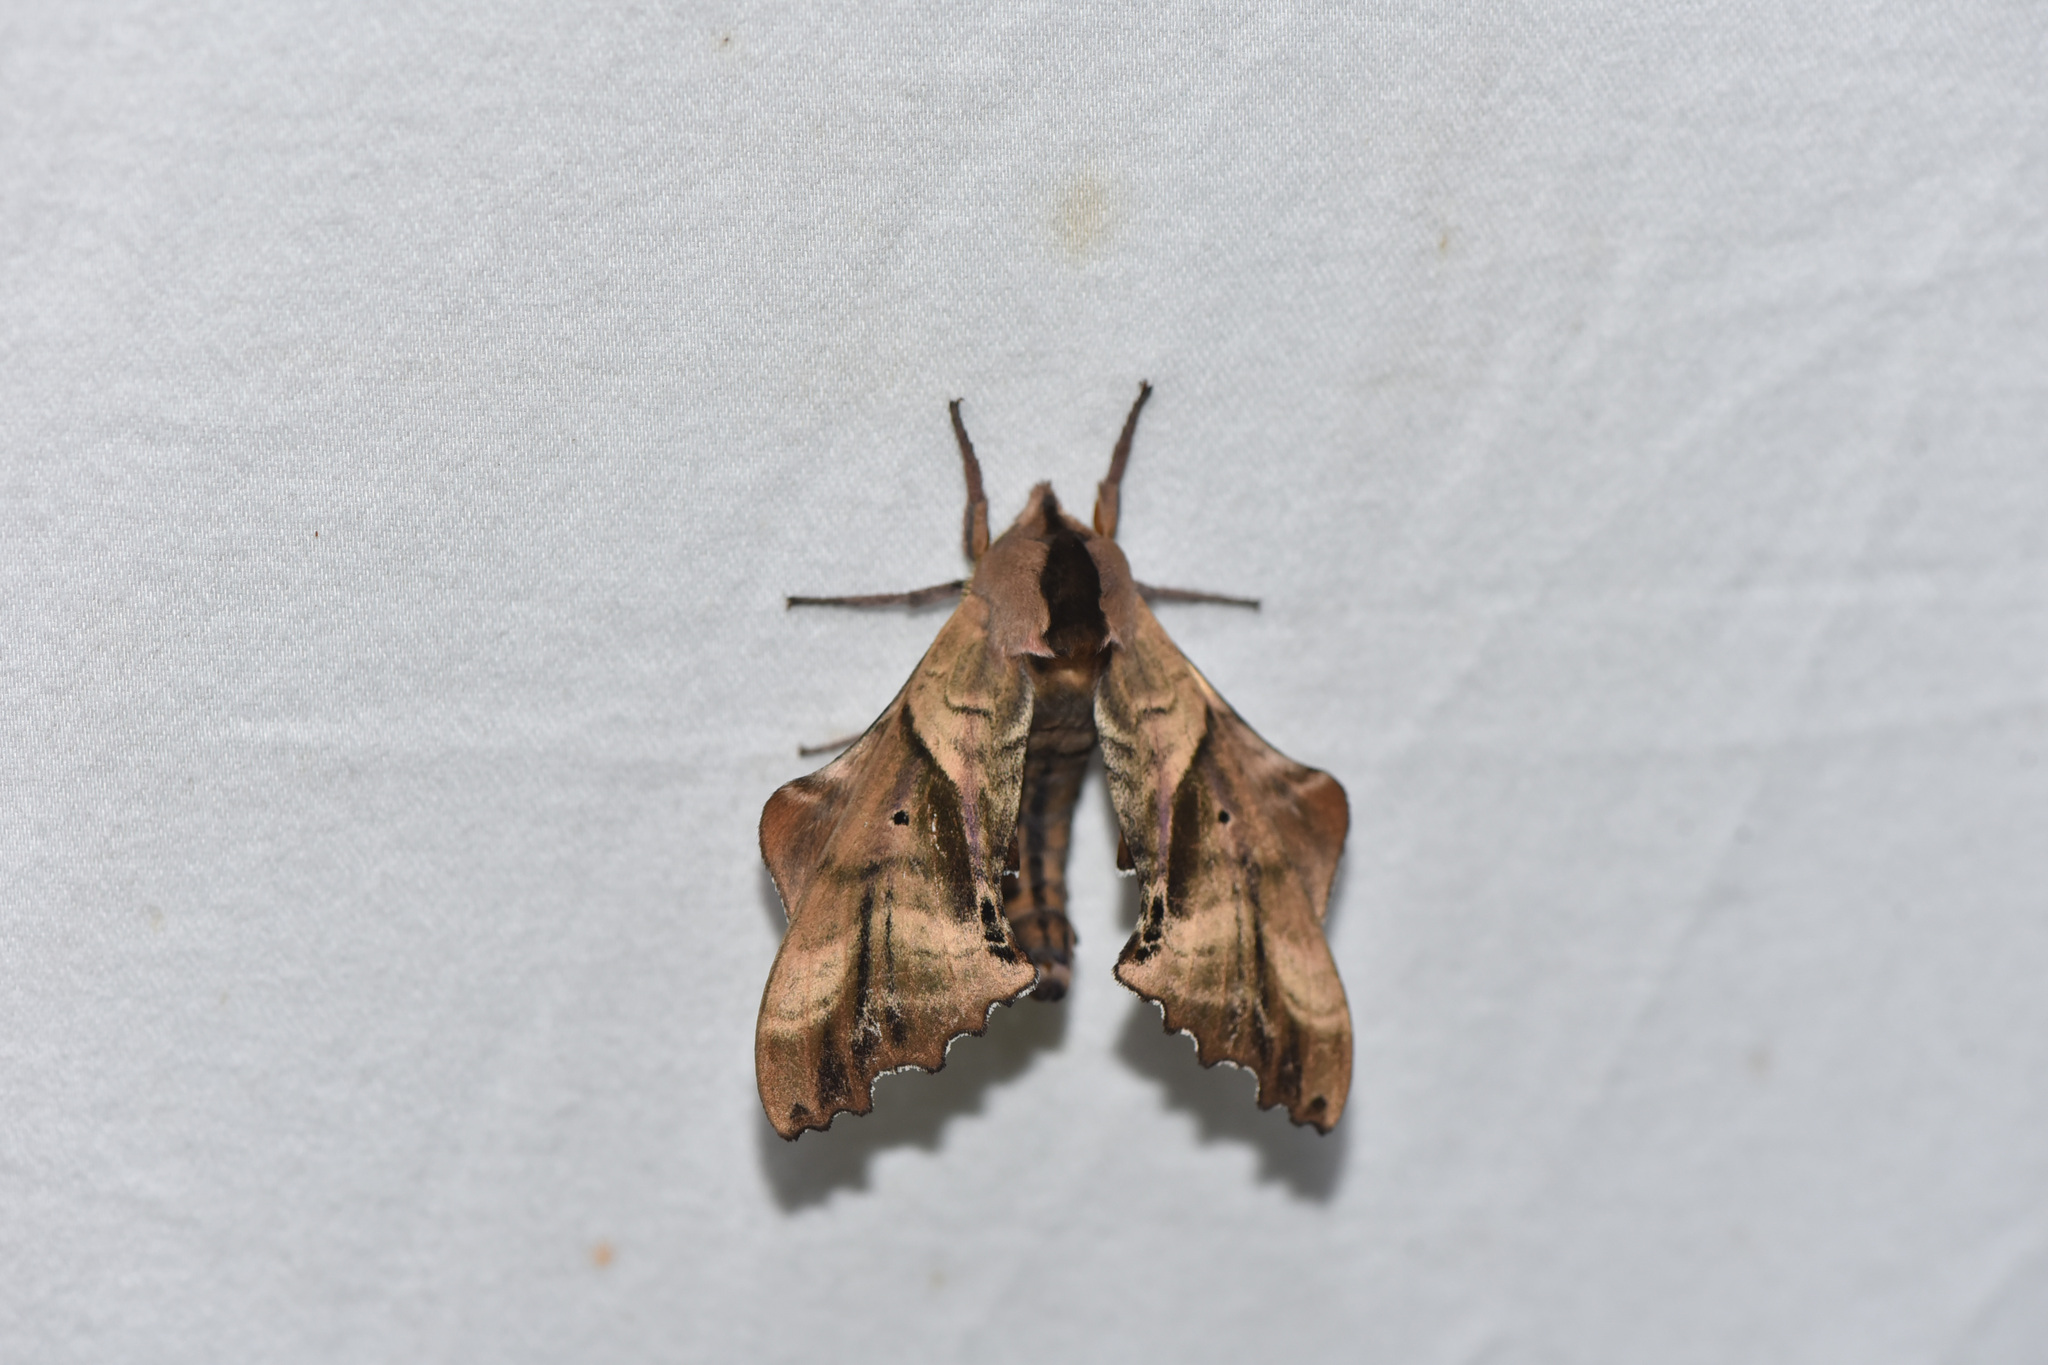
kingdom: Animalia
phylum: Arthropoda
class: Insecta
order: Lepidoptera
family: Sphingidae
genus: Paonias
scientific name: Paonias excaecata
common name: Blind-eyed sphinx
